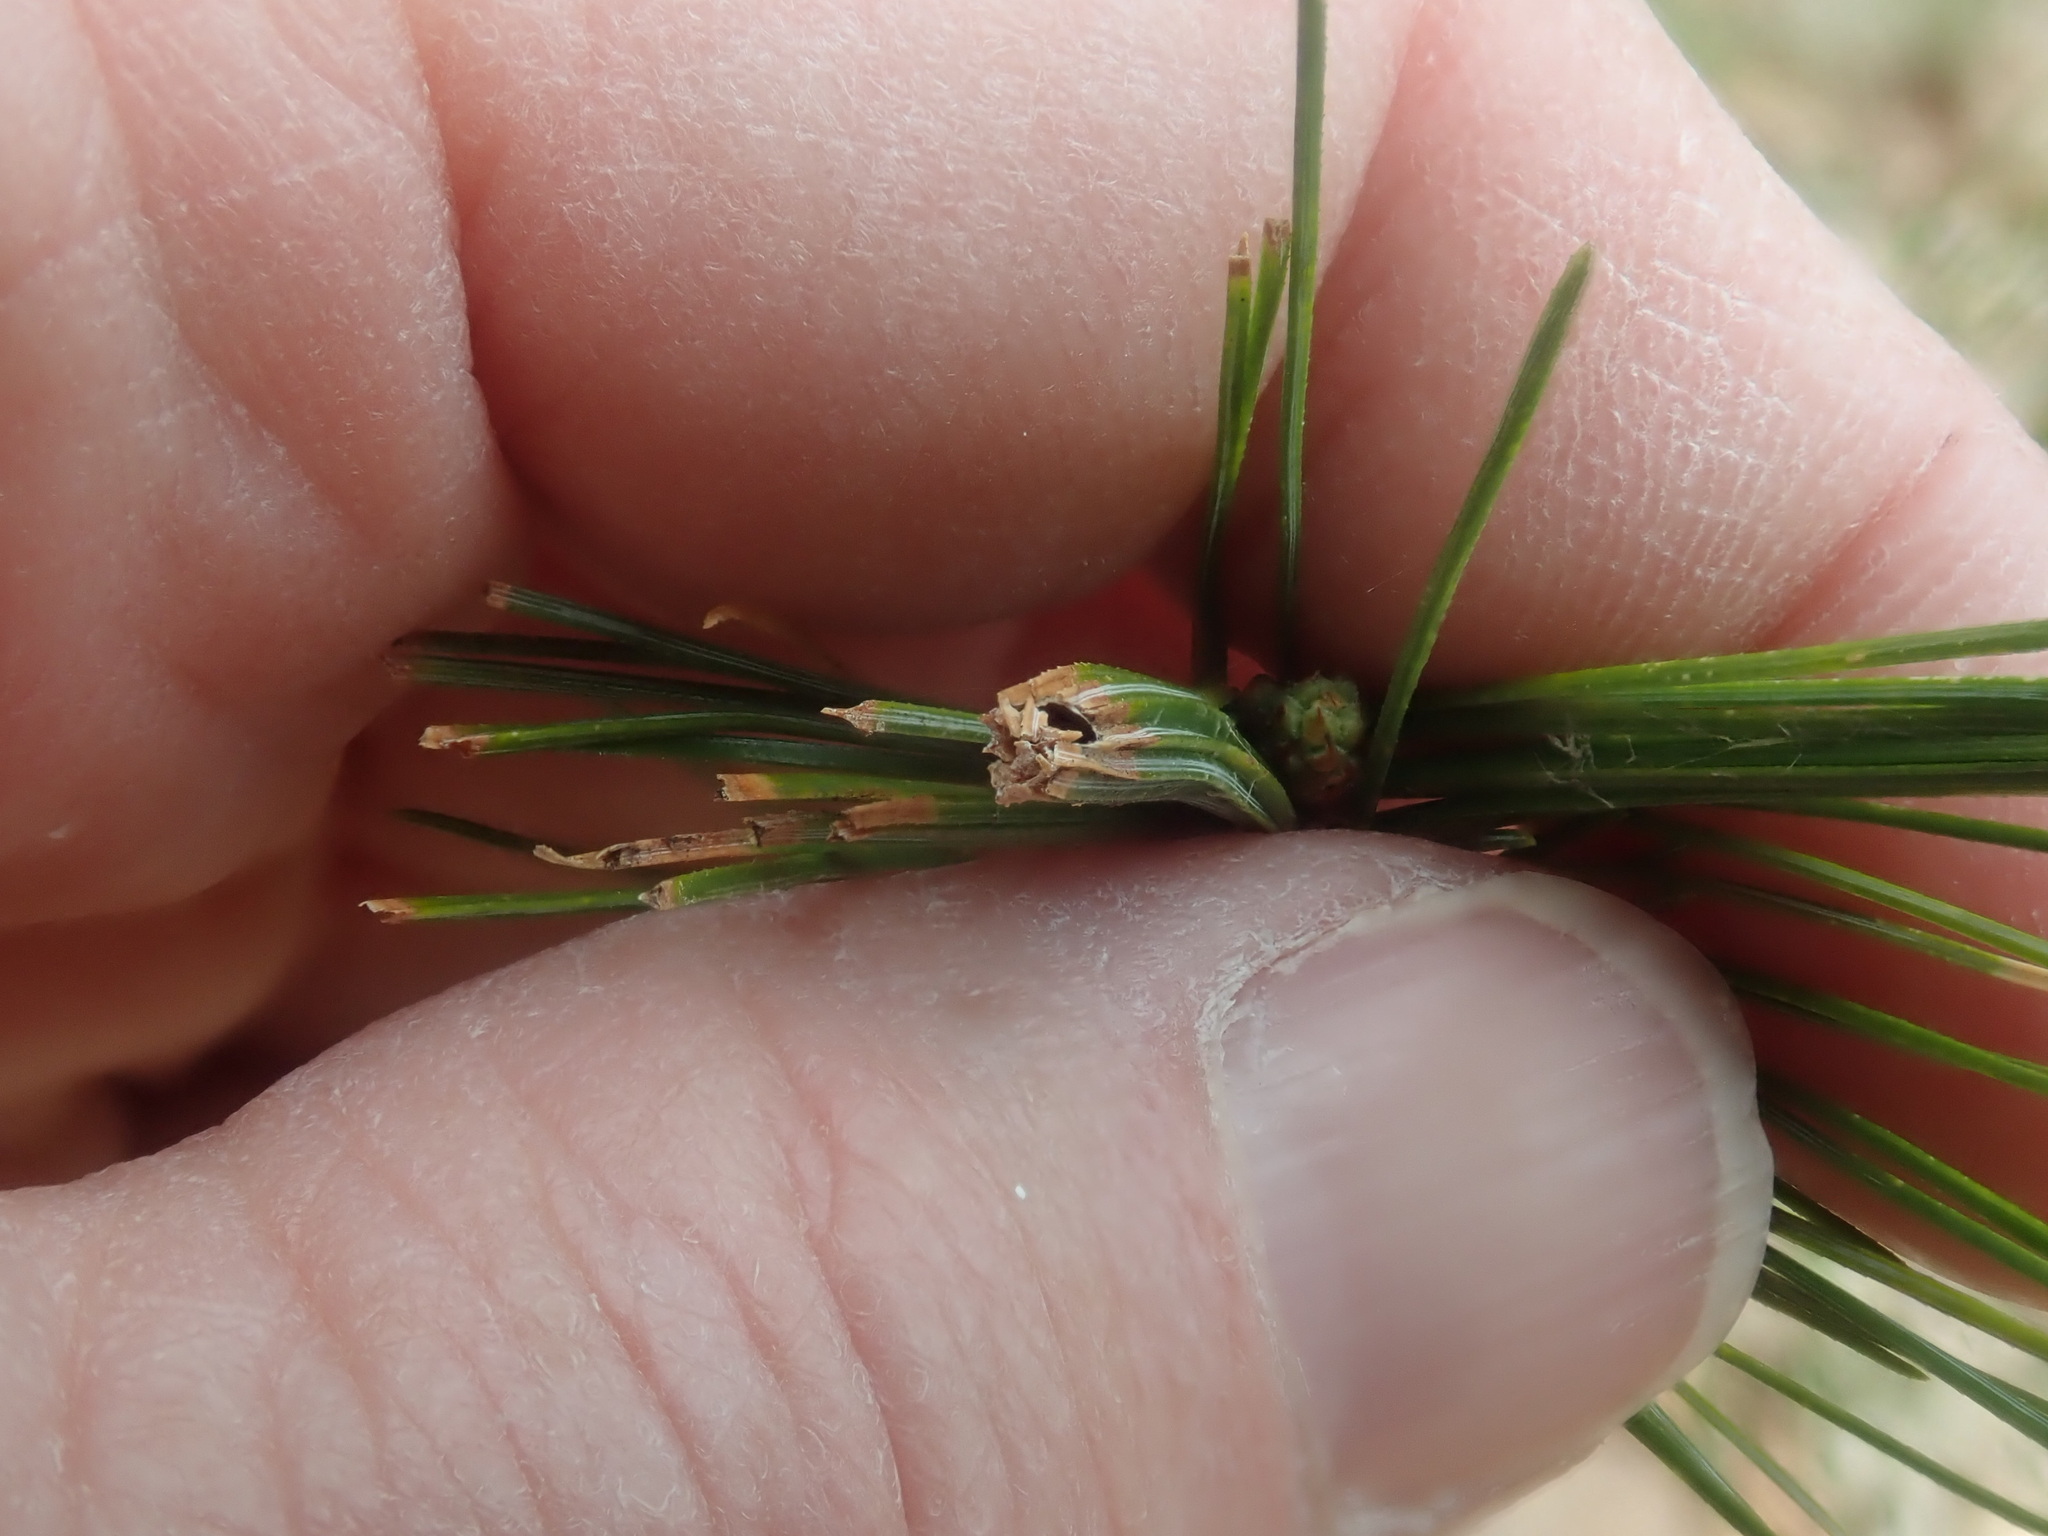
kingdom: Animalia
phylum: Arthropoda
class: Insecta
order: Lepidoptera
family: Tortricidae
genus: Argyrotaenia
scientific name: Argyrotaenia pinatubana
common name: Pine tube moth
